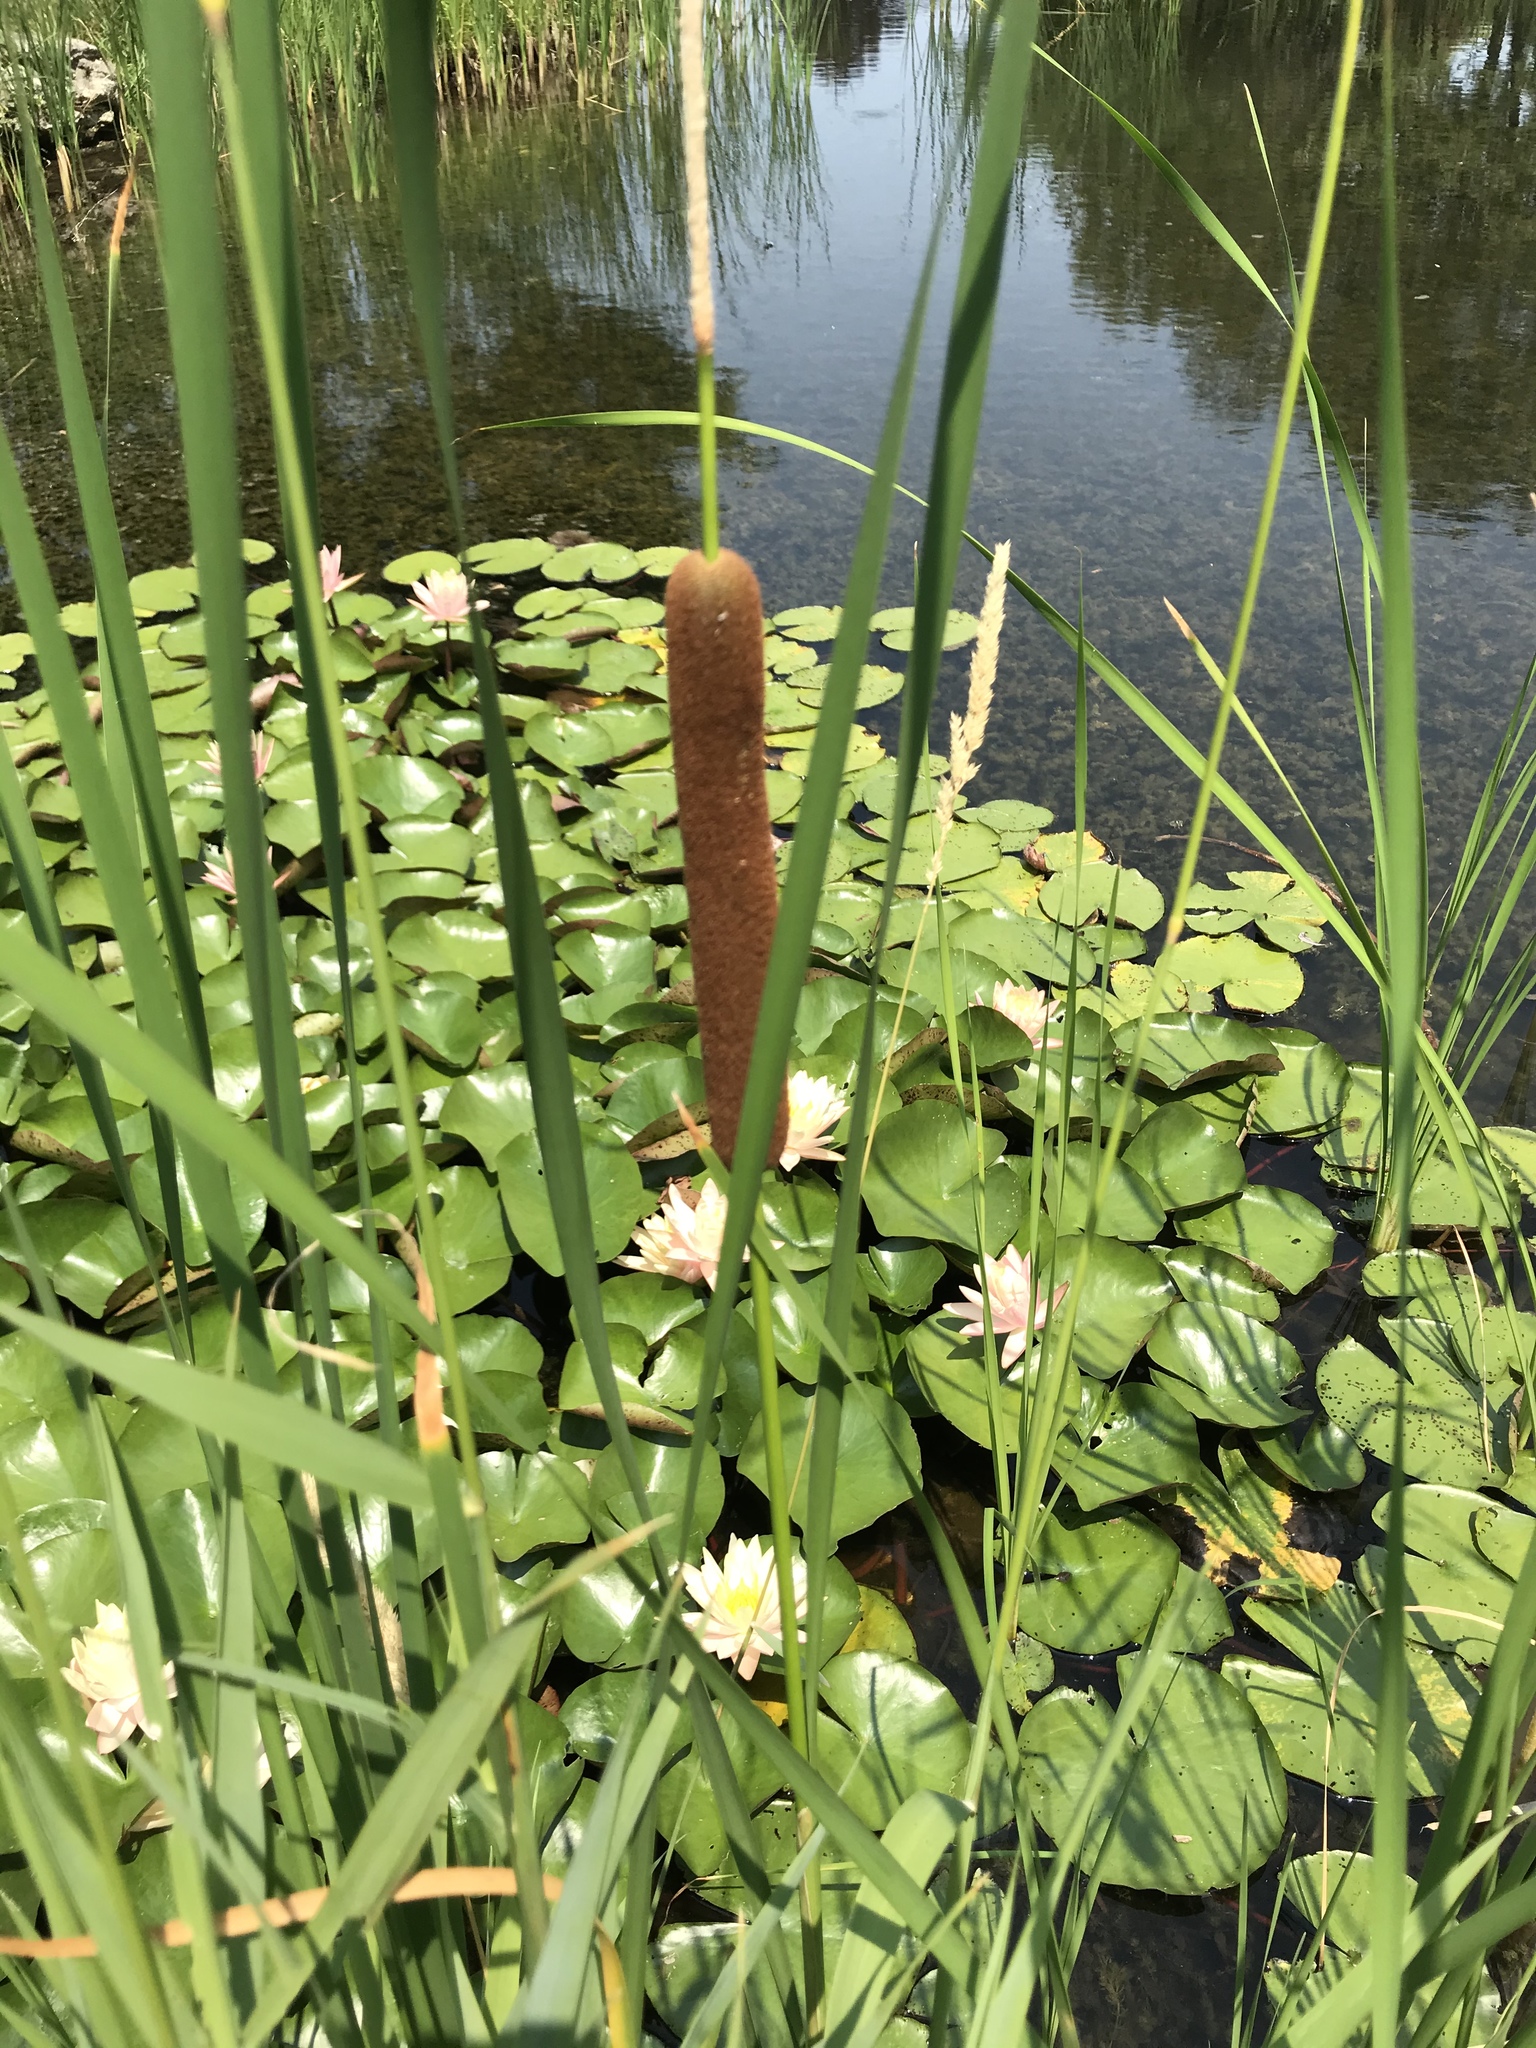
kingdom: Plantae
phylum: Tracheophyta
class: Liliopsida
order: Poales
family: Typhaceae
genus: Typha
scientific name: Typha angustifolia
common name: Lesser bulrush
